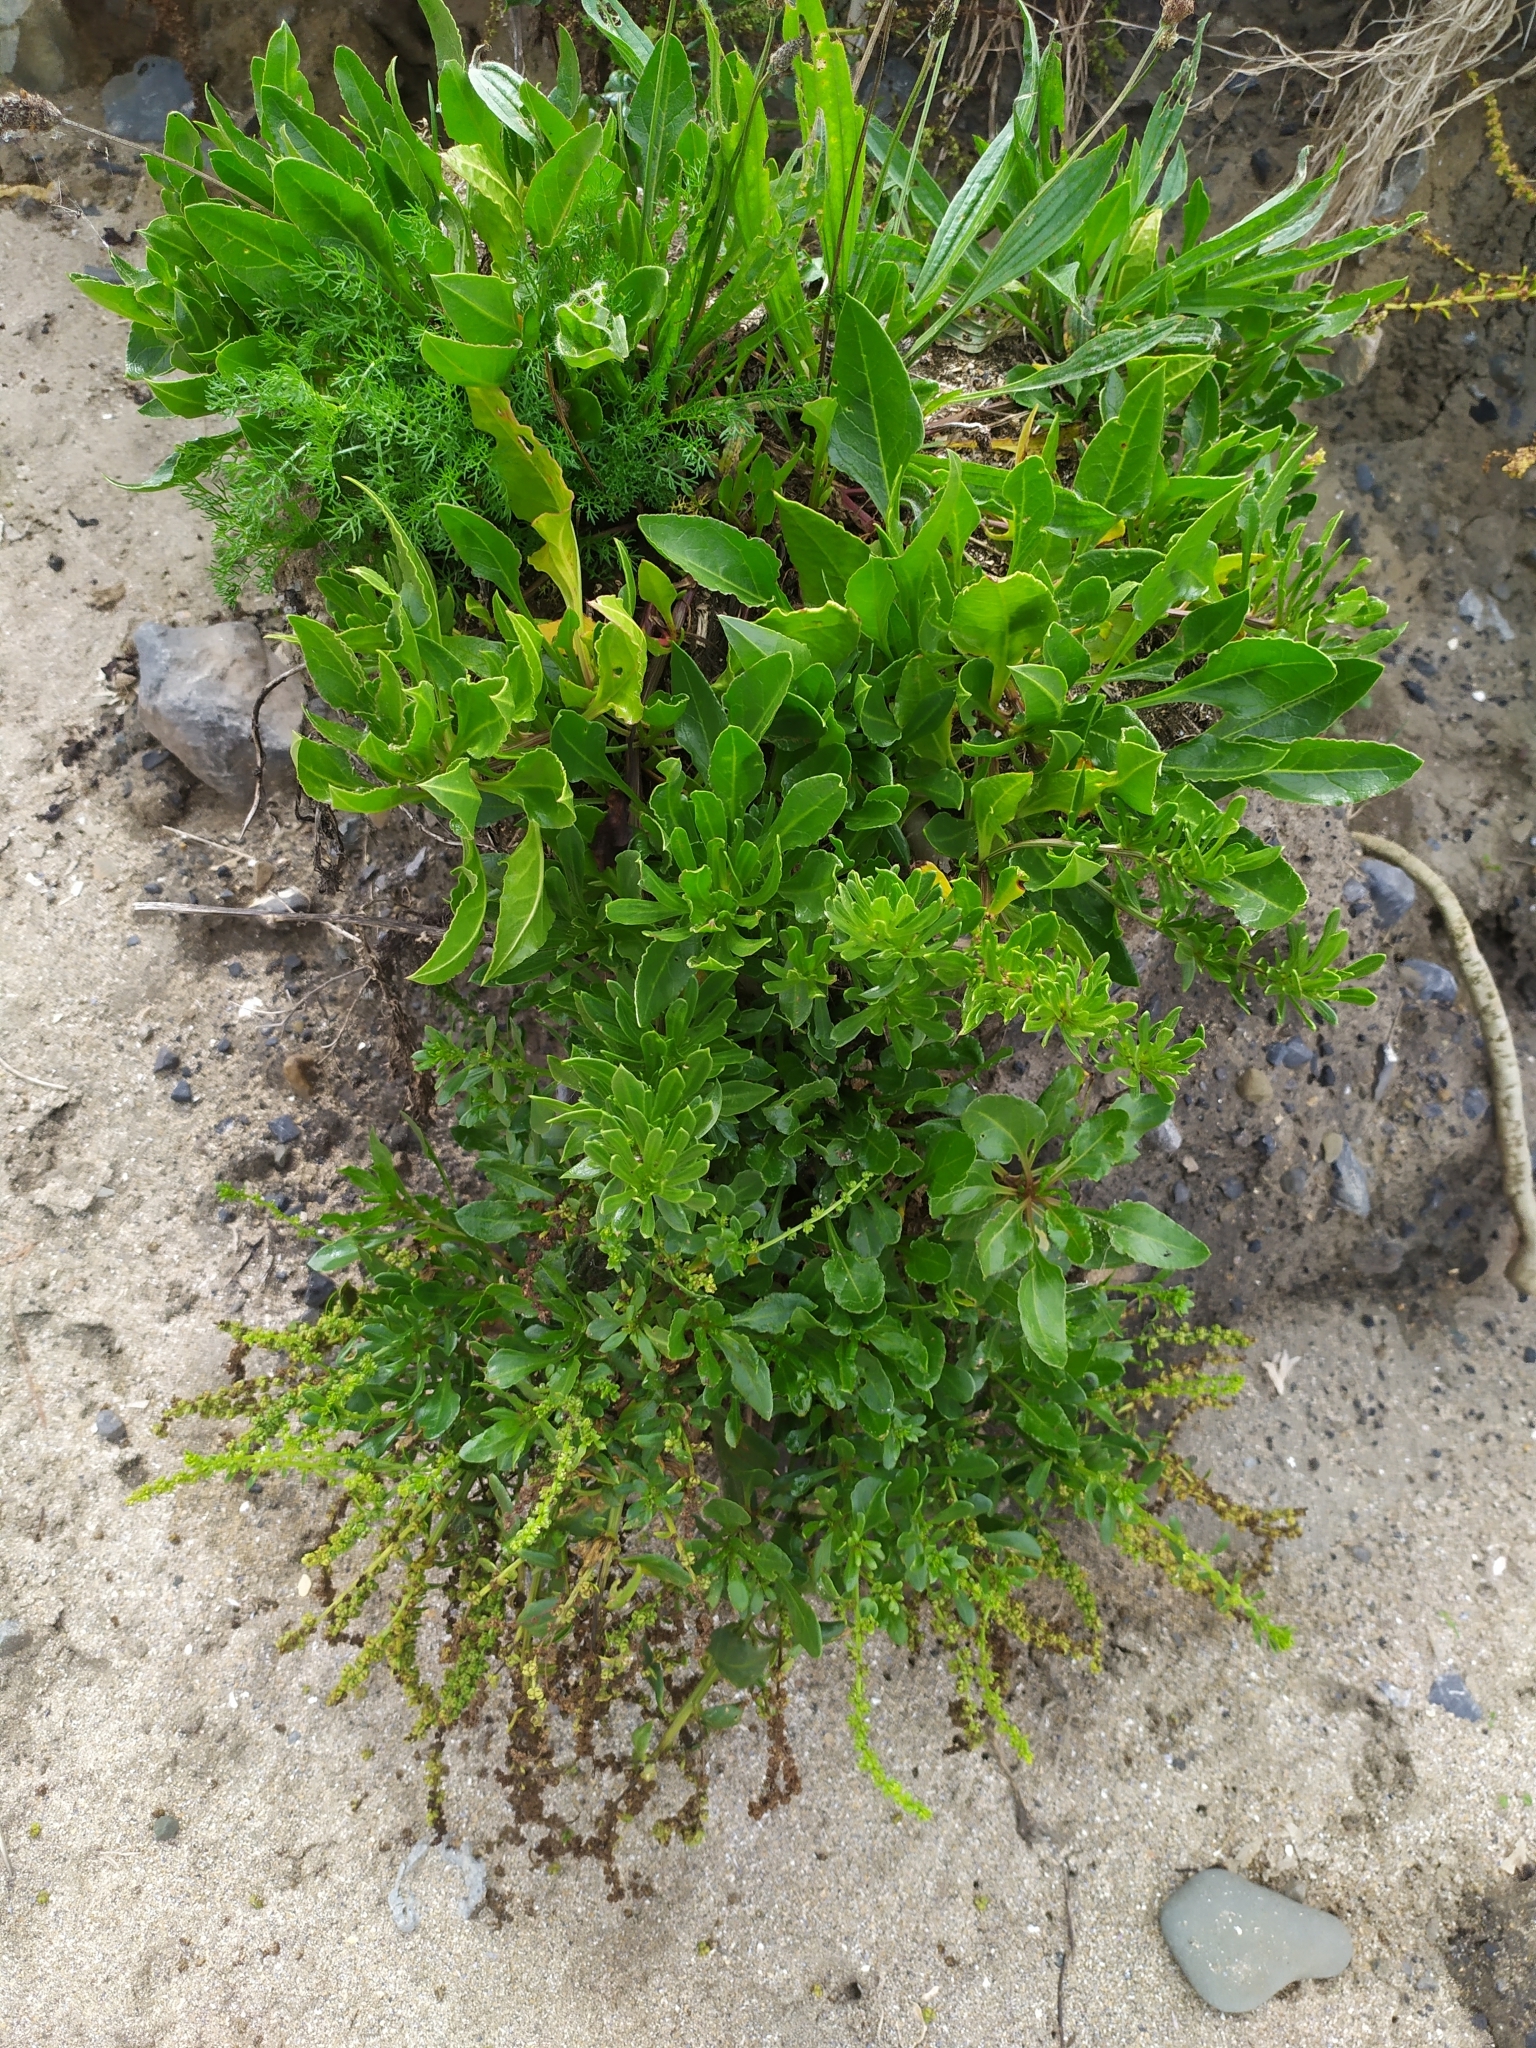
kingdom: Plantae
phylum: Tracheophyta
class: Magnoliopsida
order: Caryophyllales
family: Amaranthaceae
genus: Beta
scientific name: Beta vulgaris
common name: Beet
